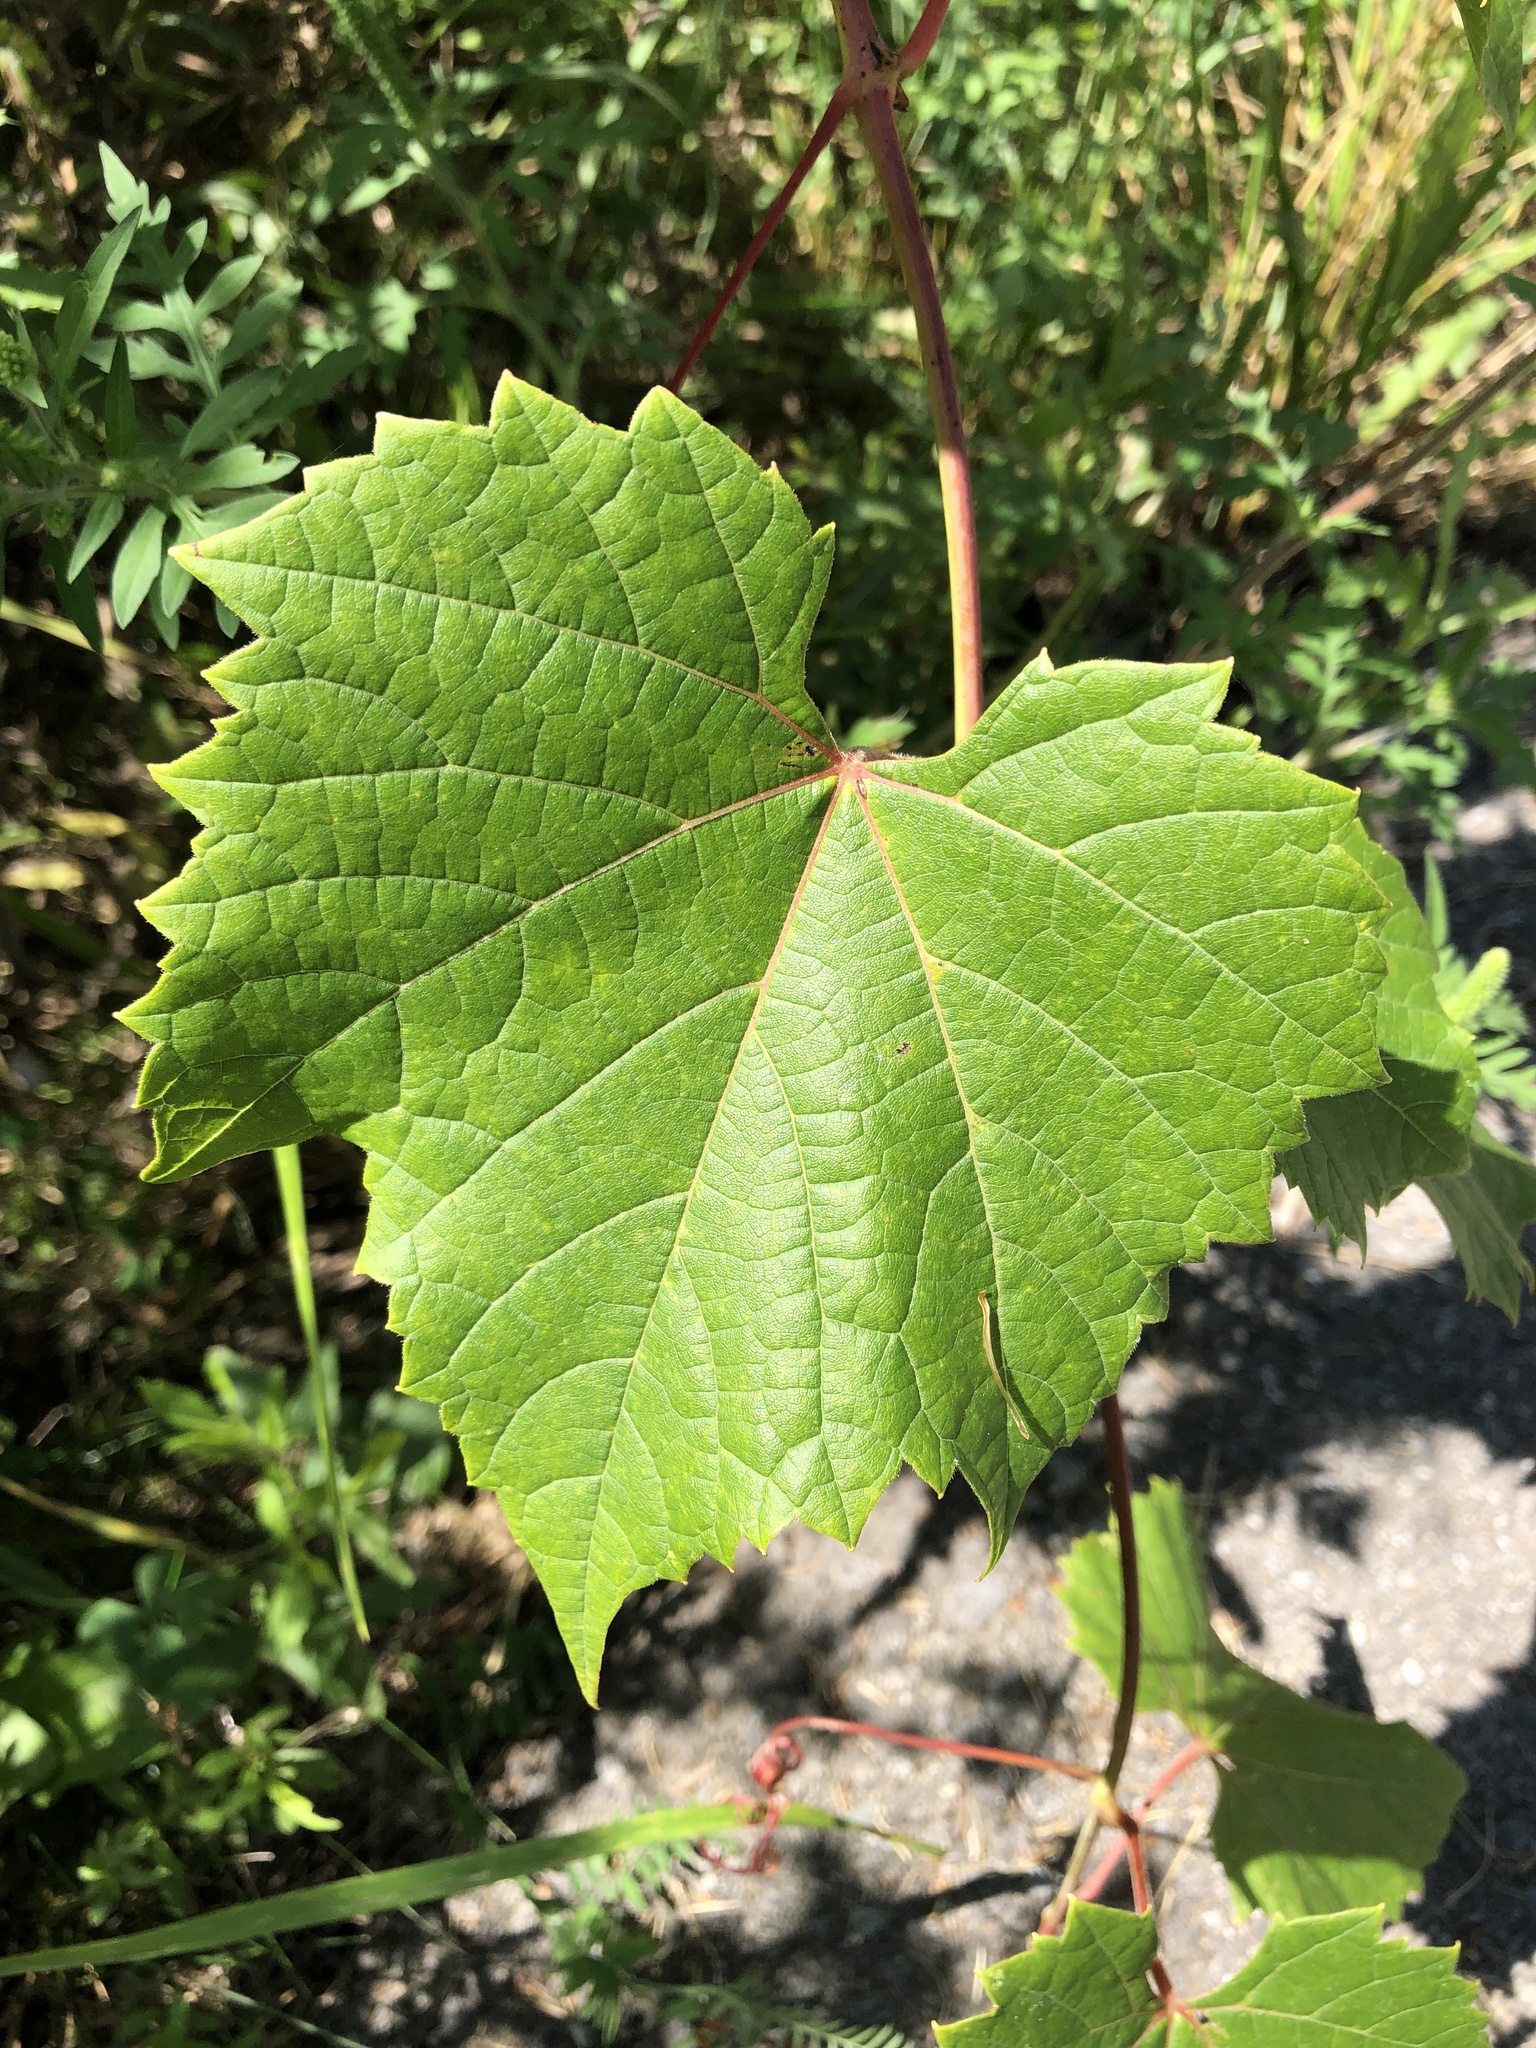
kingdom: Plantae
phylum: Tracheophyta
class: Magnoliopsida
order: Vitales
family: Vitaceae
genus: Vitis
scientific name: Vitis riparia
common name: Frost grape
